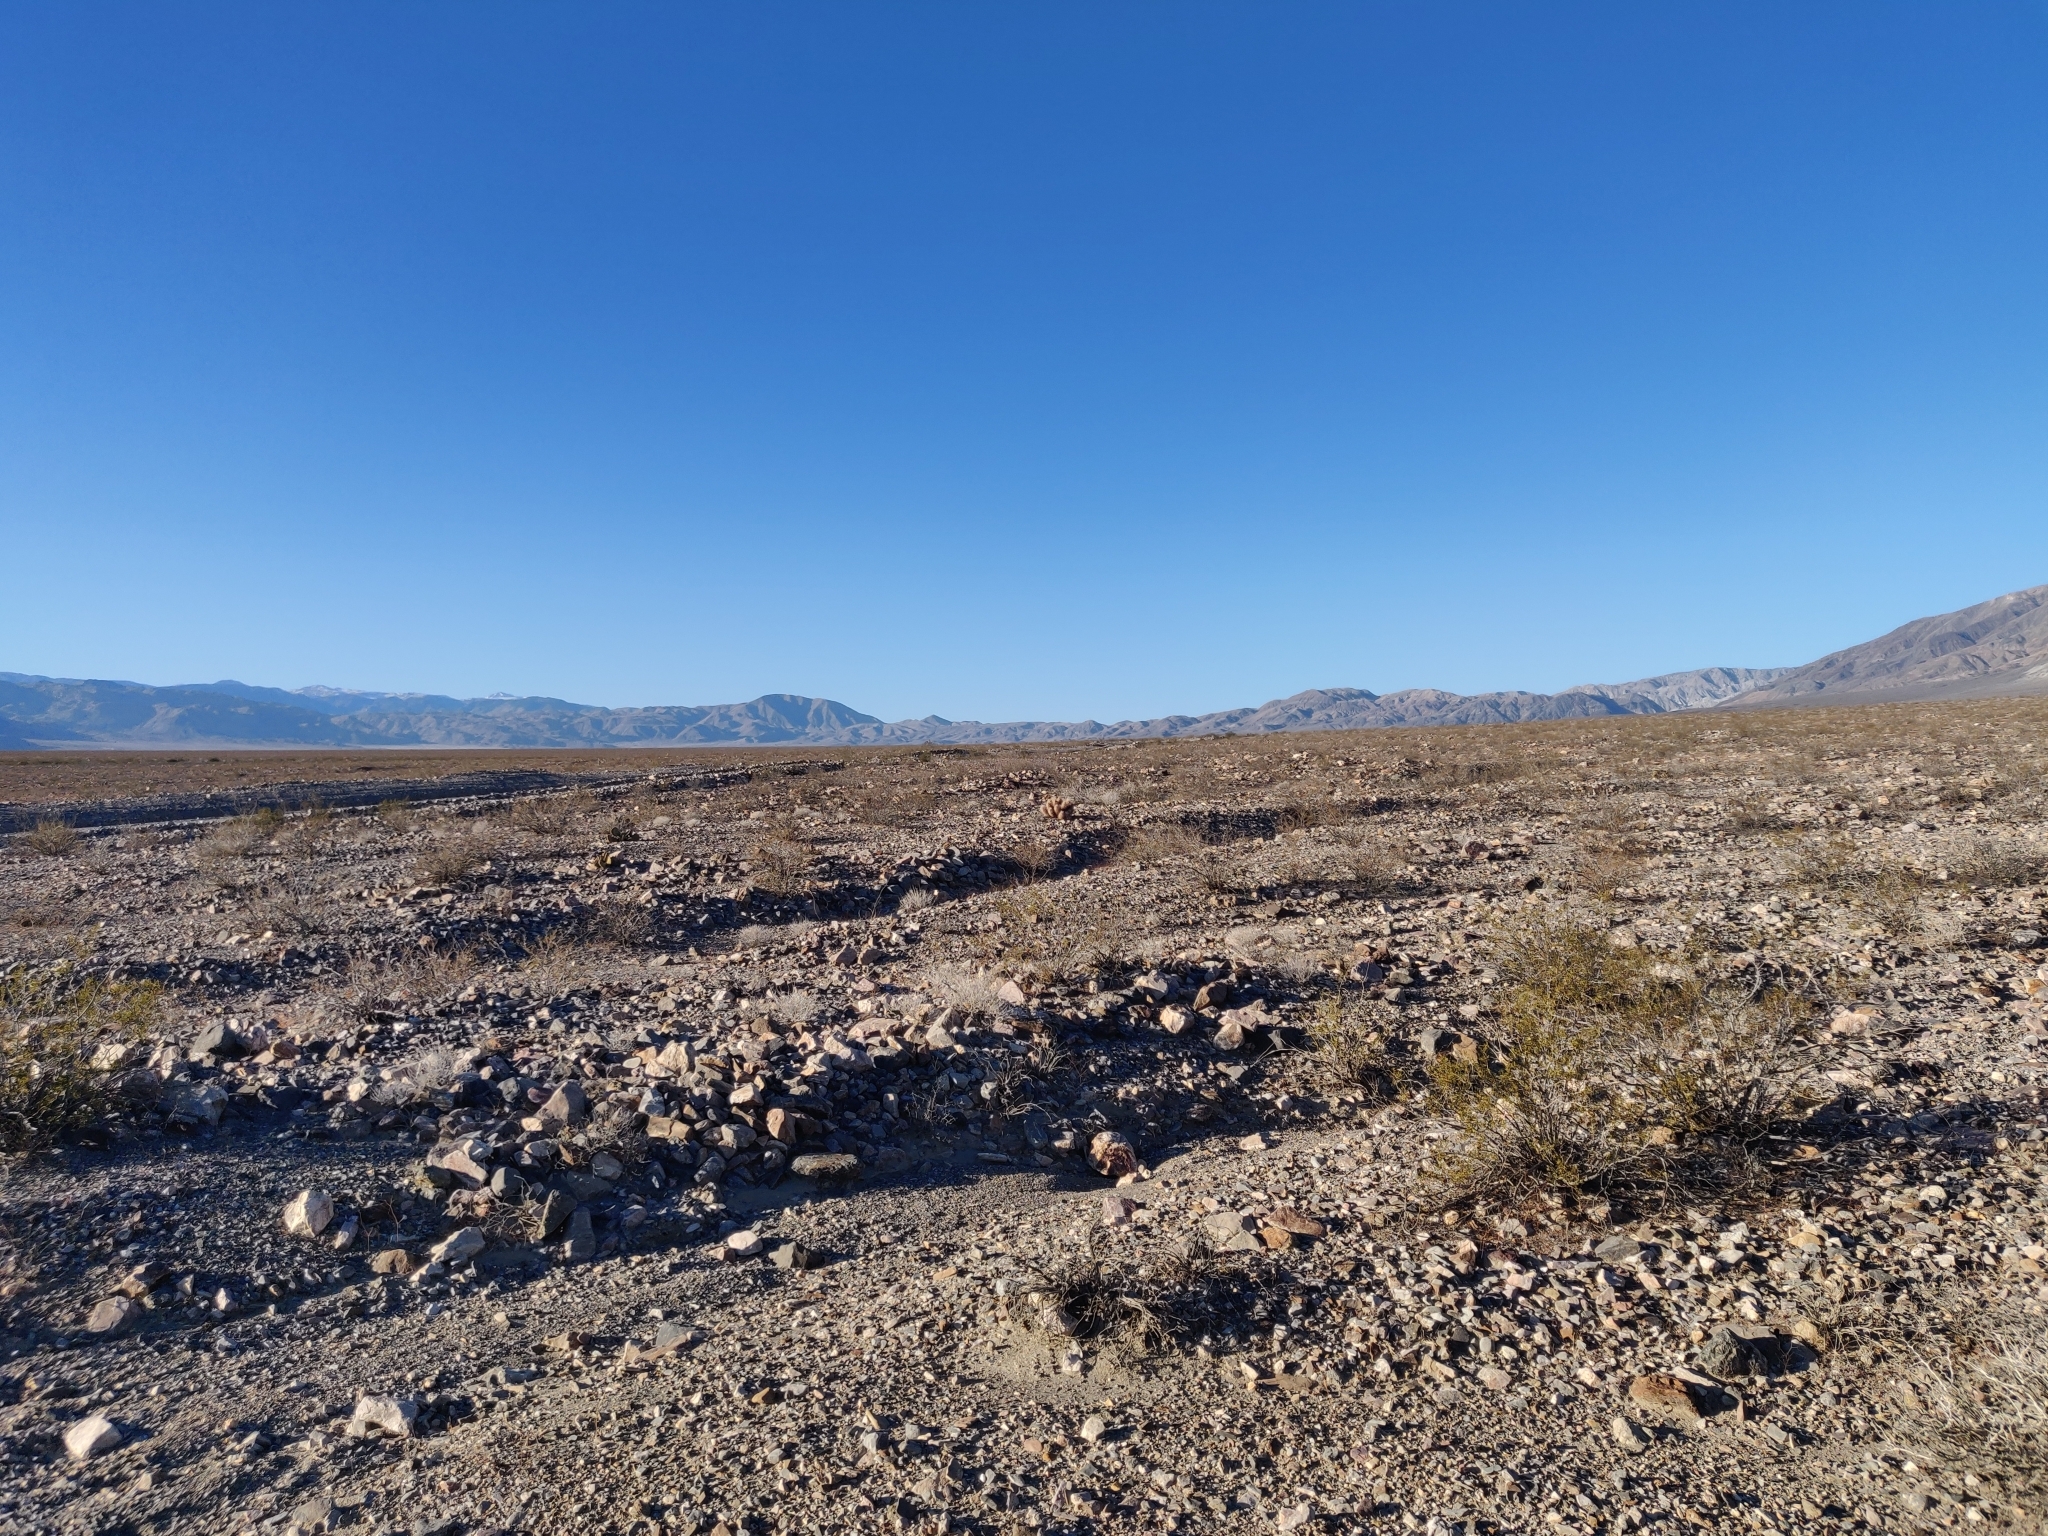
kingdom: Plantae
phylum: Tracheophyta
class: Magnoliopsida
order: Caryophyllales
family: Cactaceae
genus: Echinocereus
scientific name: Echinocereus engelmannii
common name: Engelmann's hedgehog cactus
